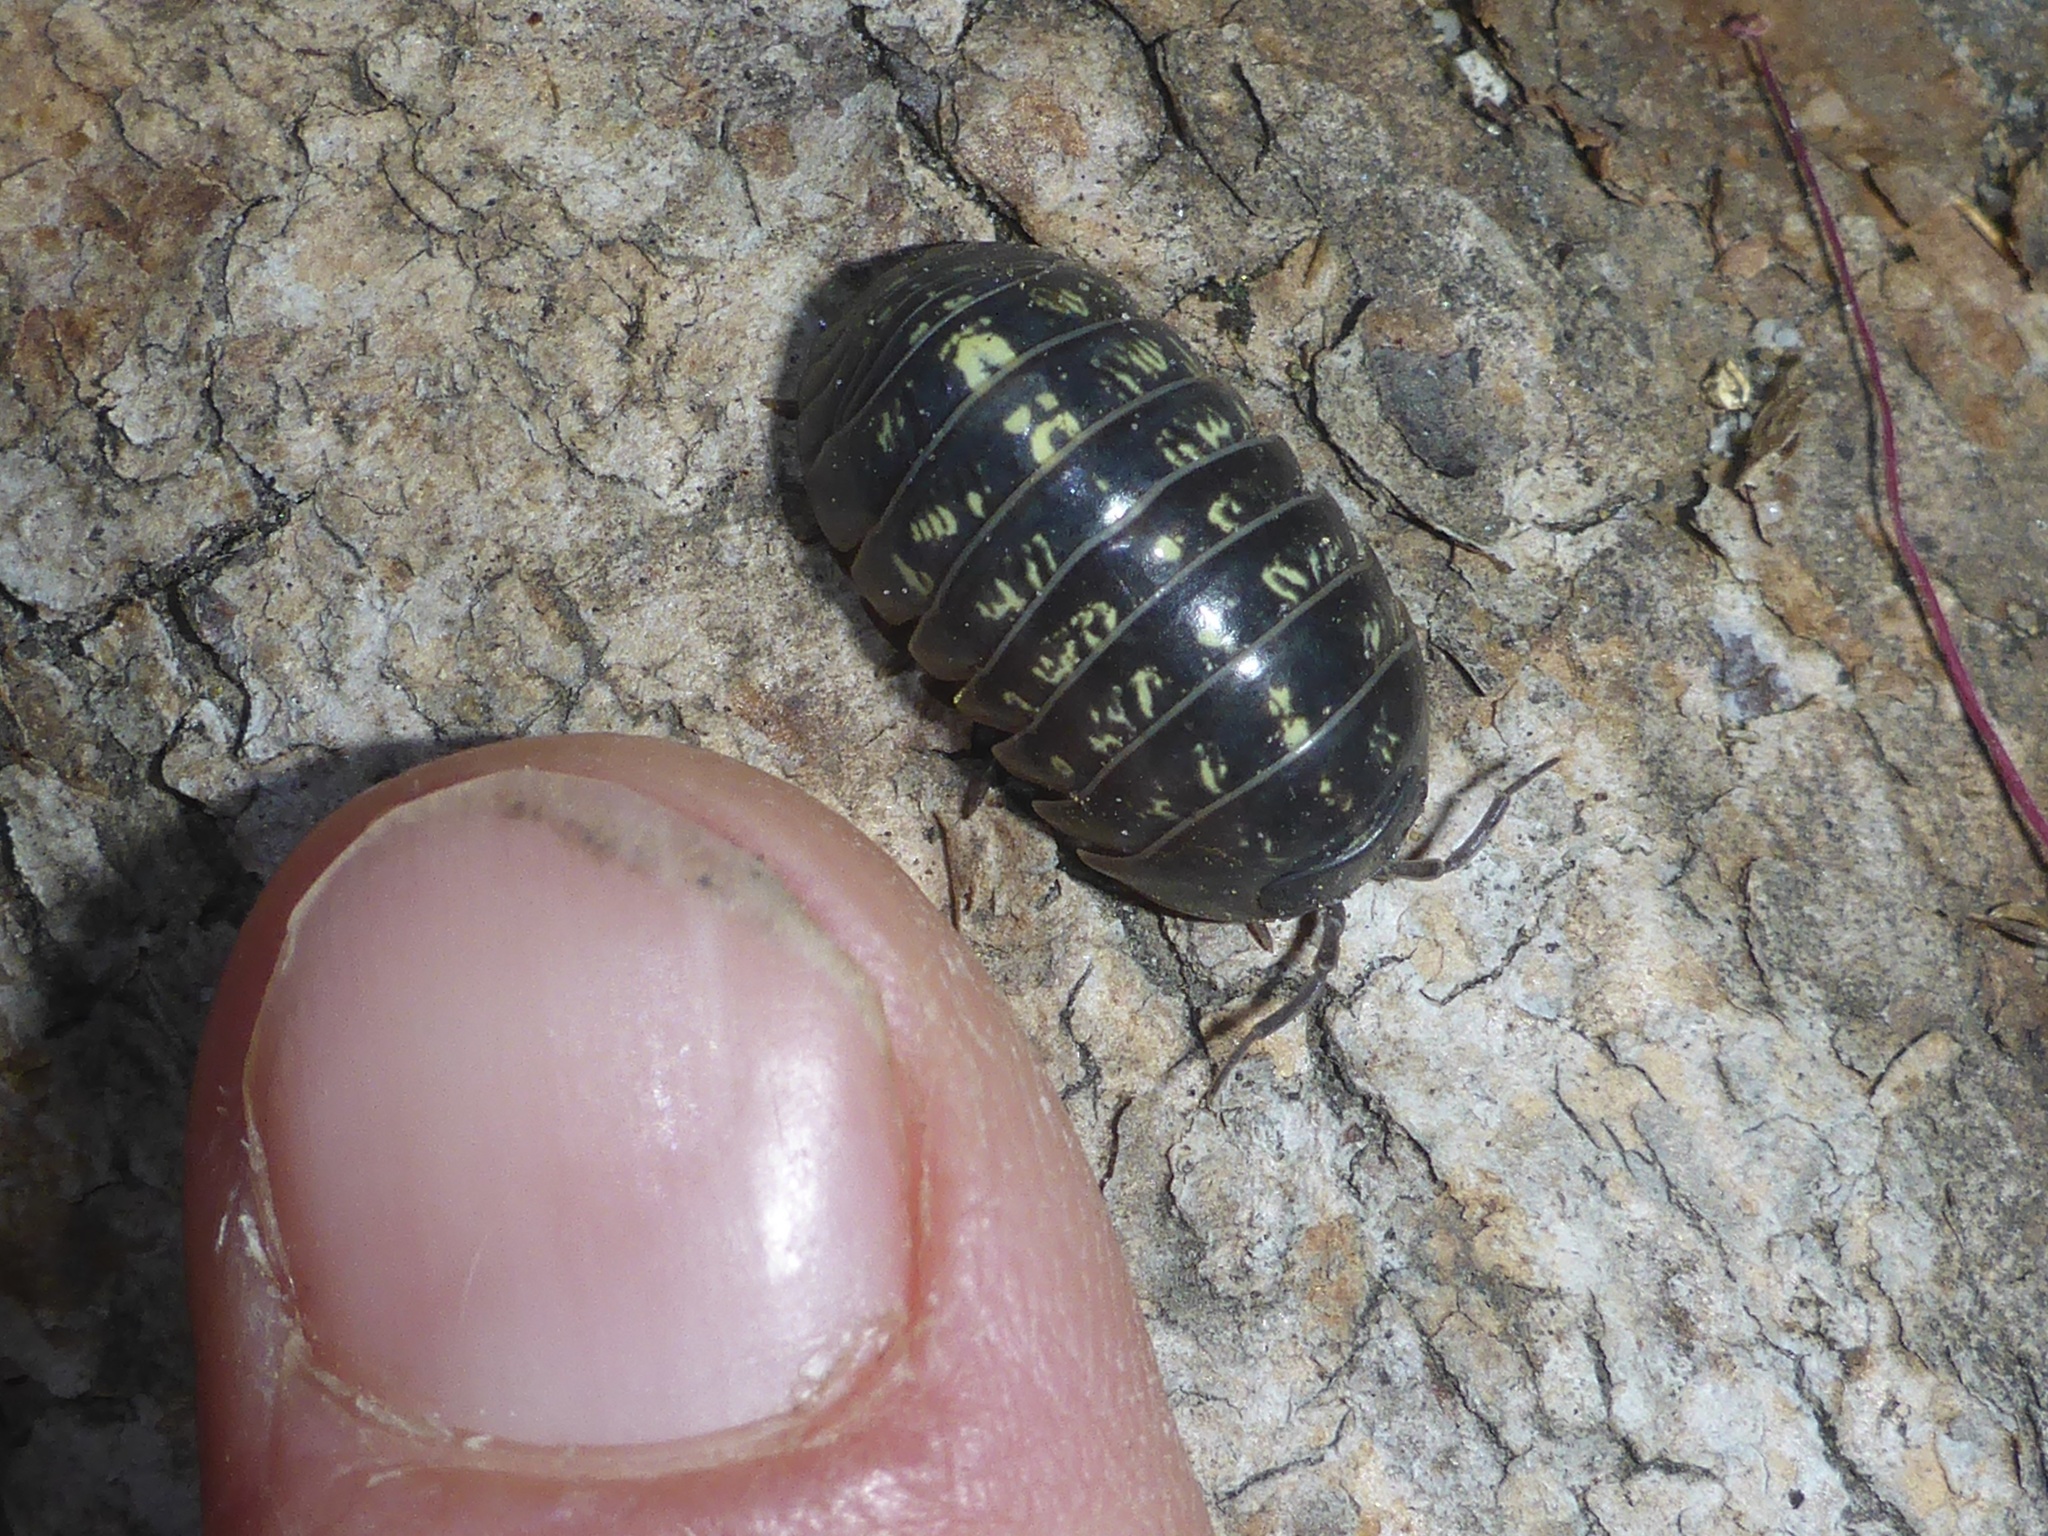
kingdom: Animalia
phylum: Arthropoda
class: Malacostraca
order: Isopoda
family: Armadillidiidae
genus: Armadillidium
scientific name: Armadillidium vulgare
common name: Common pill woodlouse
